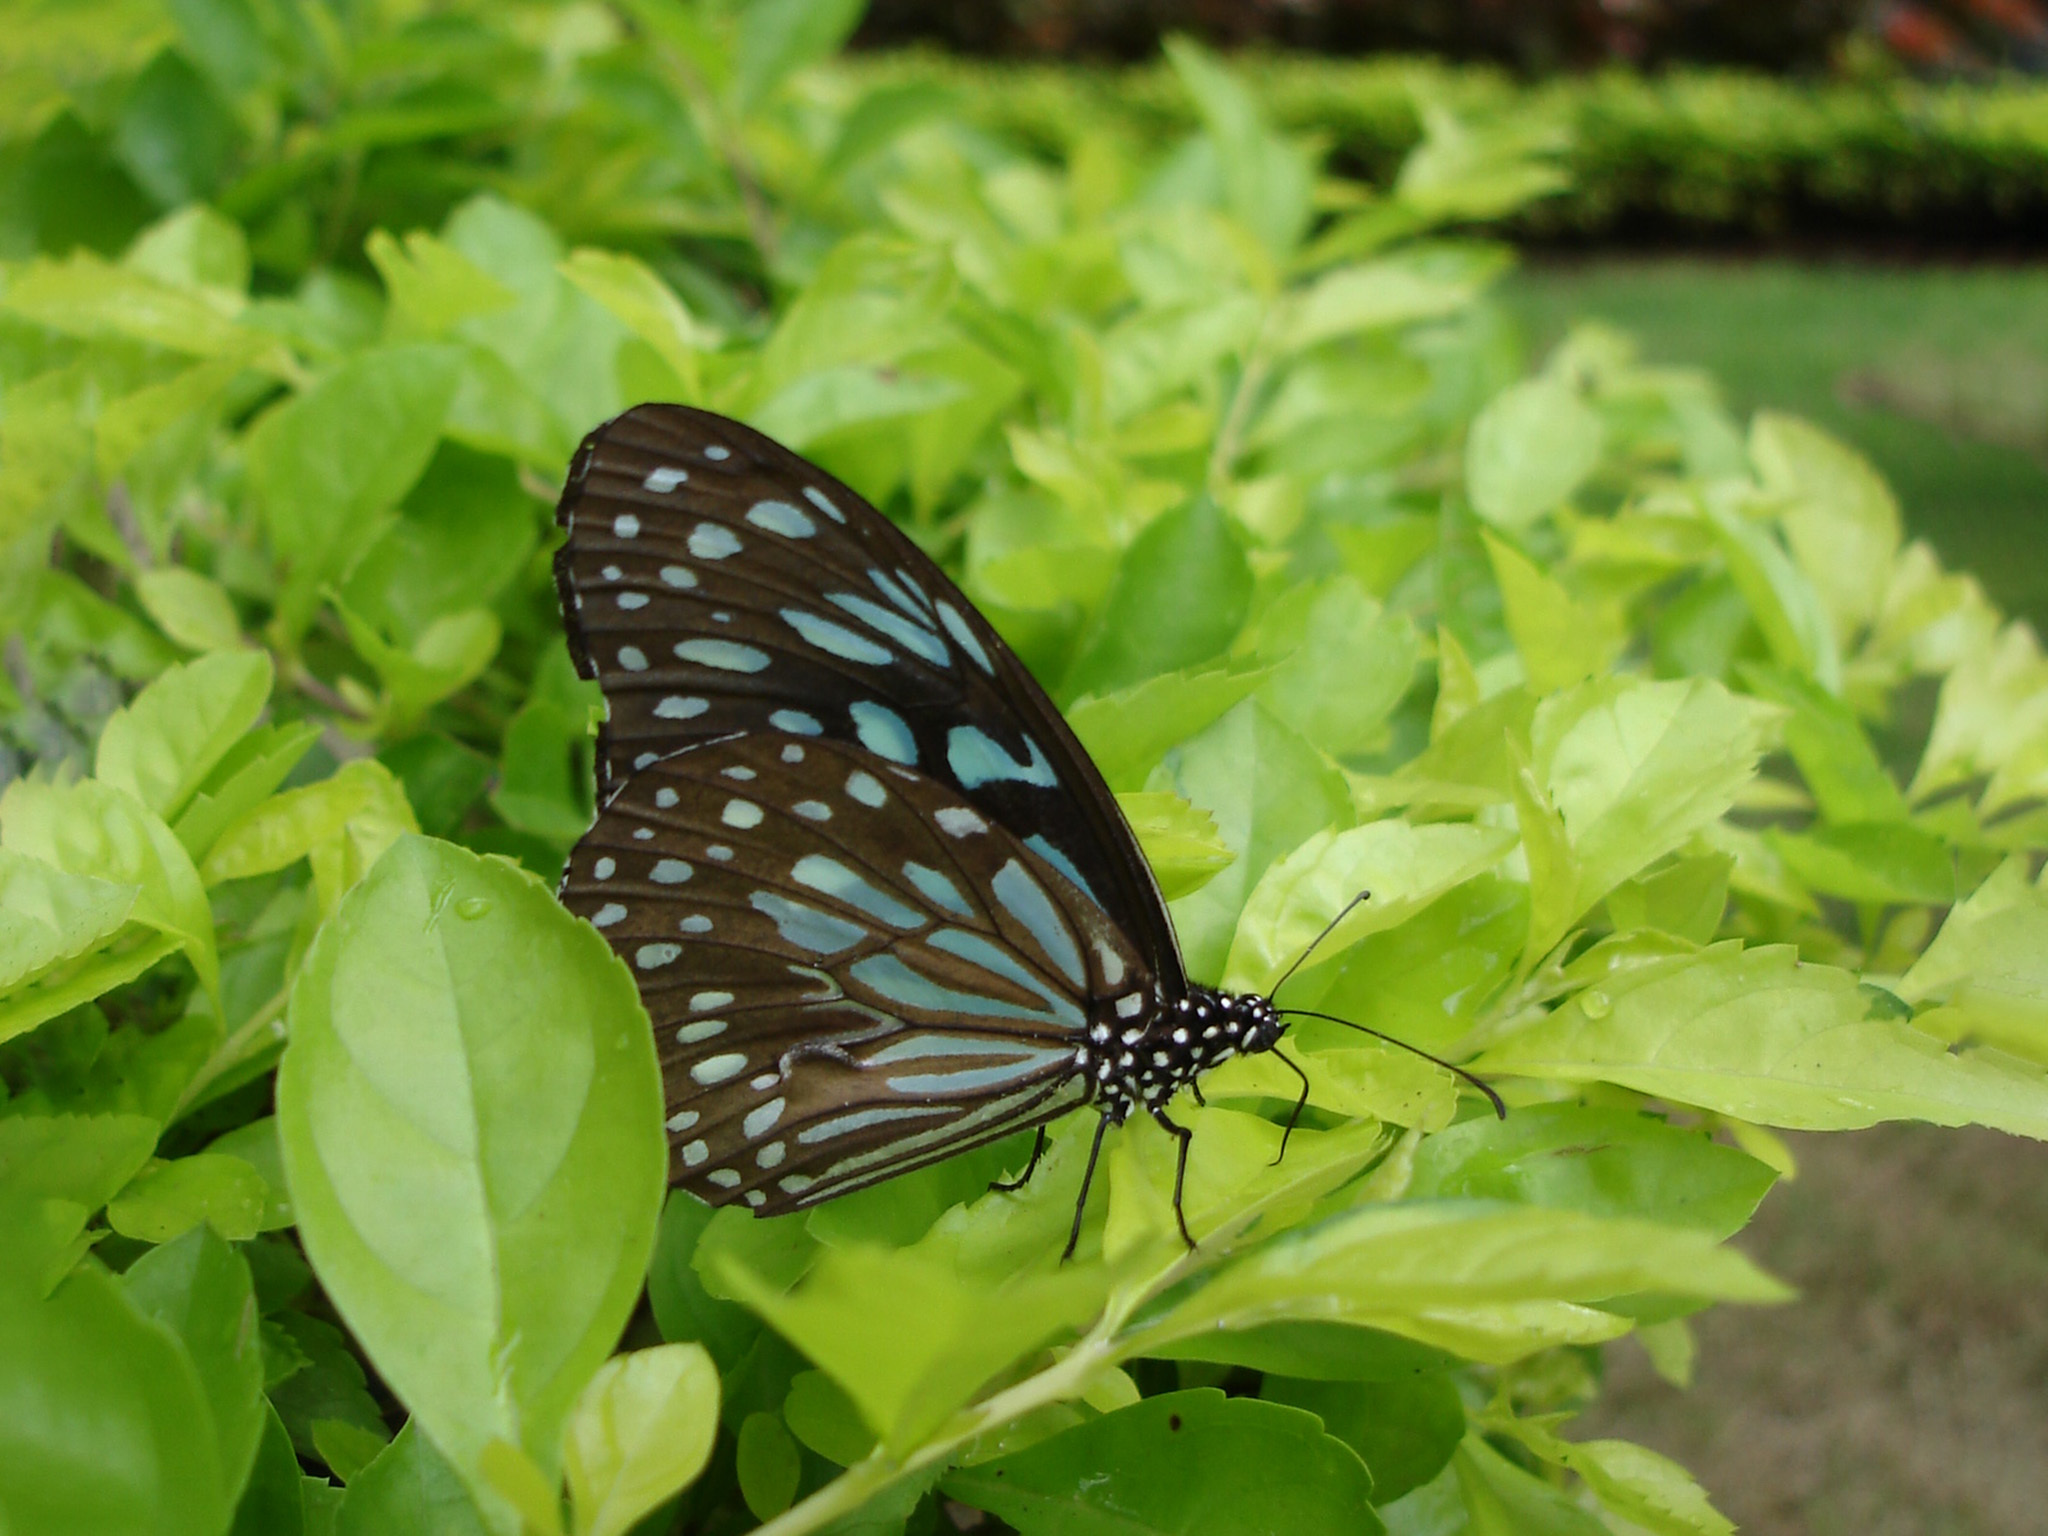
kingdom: Animalia
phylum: Arthropoda
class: Insecta
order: Lepidoptera
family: Nymphalidae
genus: Tirumala
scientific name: Tirumala septentrionis
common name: Dark blue tiger butterfly
